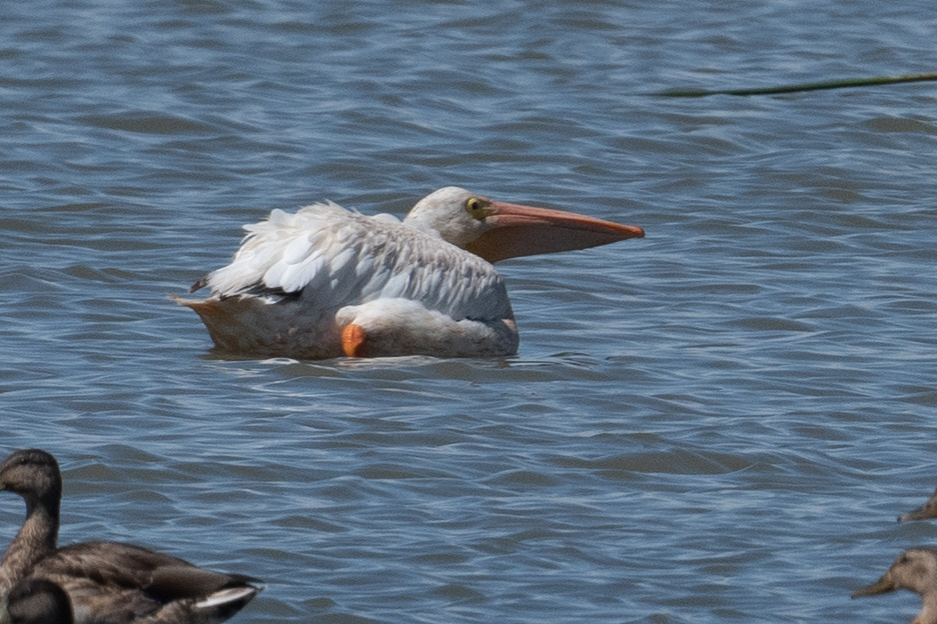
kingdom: Animalia
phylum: Chordata
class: Aves
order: Pelecaniformes
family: Pelecanidae
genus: Pelecanus
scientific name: Pelecanus erythrorhynchos
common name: American white pelican
